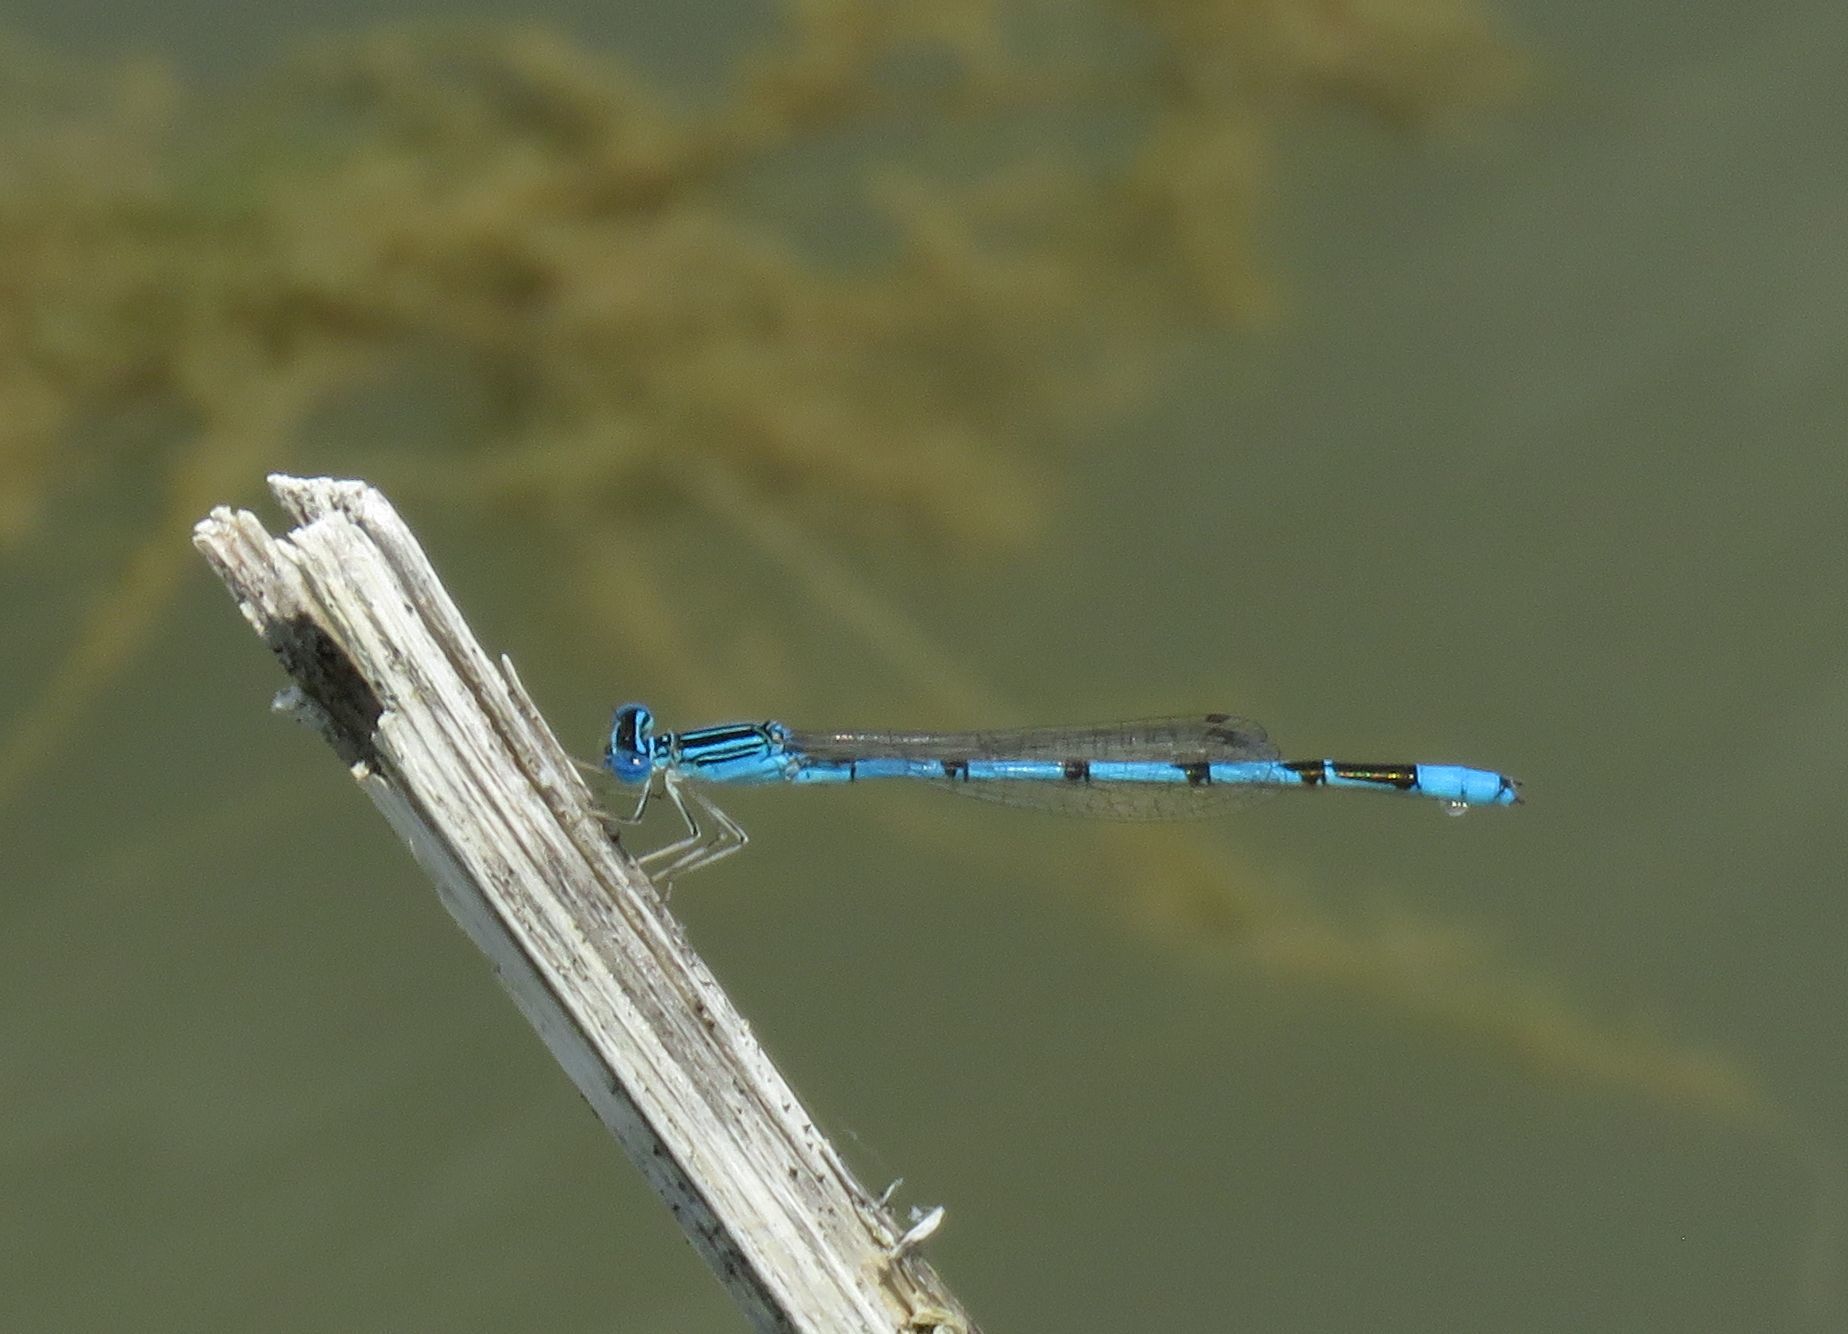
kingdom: Animalia
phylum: Arthropoda
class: Insecta
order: Odonata
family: Coenagrionidae
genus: Enallagma
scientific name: Enallagma basidens
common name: Double-striped bluet
